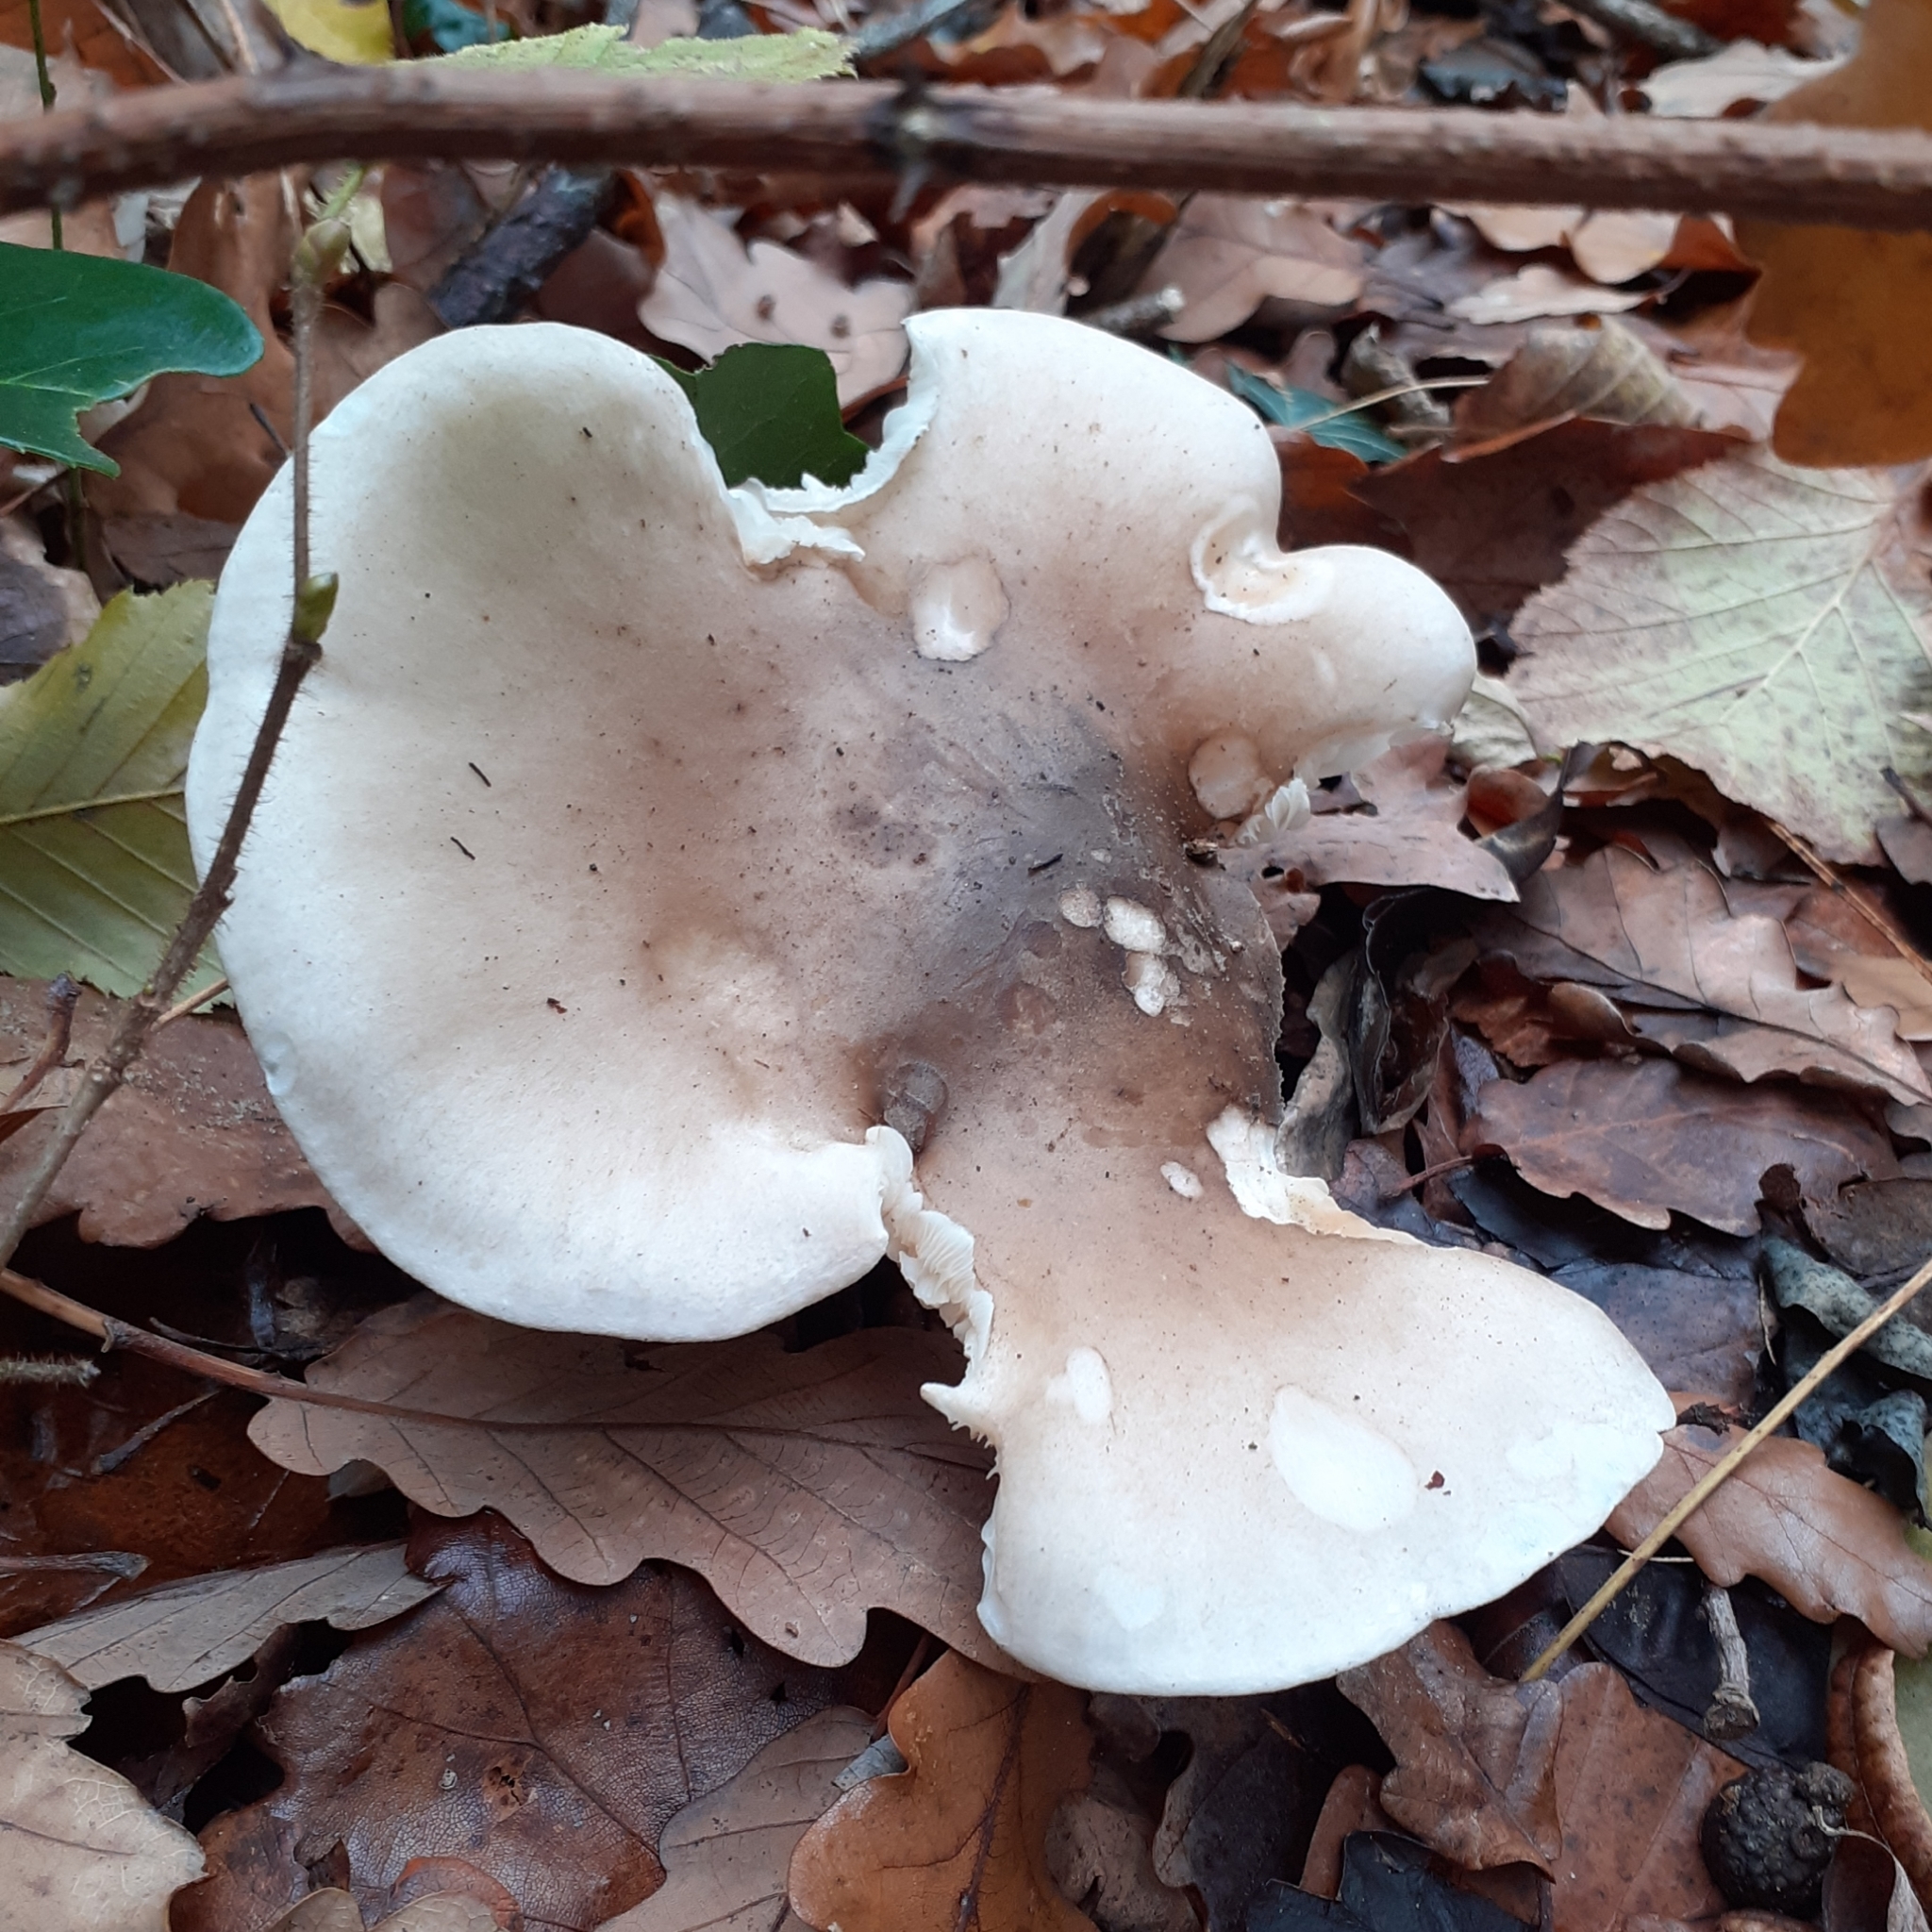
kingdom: Fungi
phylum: Basidiomycota
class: Agaricomycetes
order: Agaricales
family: Tricholomataceae
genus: Clitocybe
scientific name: Clitocybe nebularis
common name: Clouded agaric
